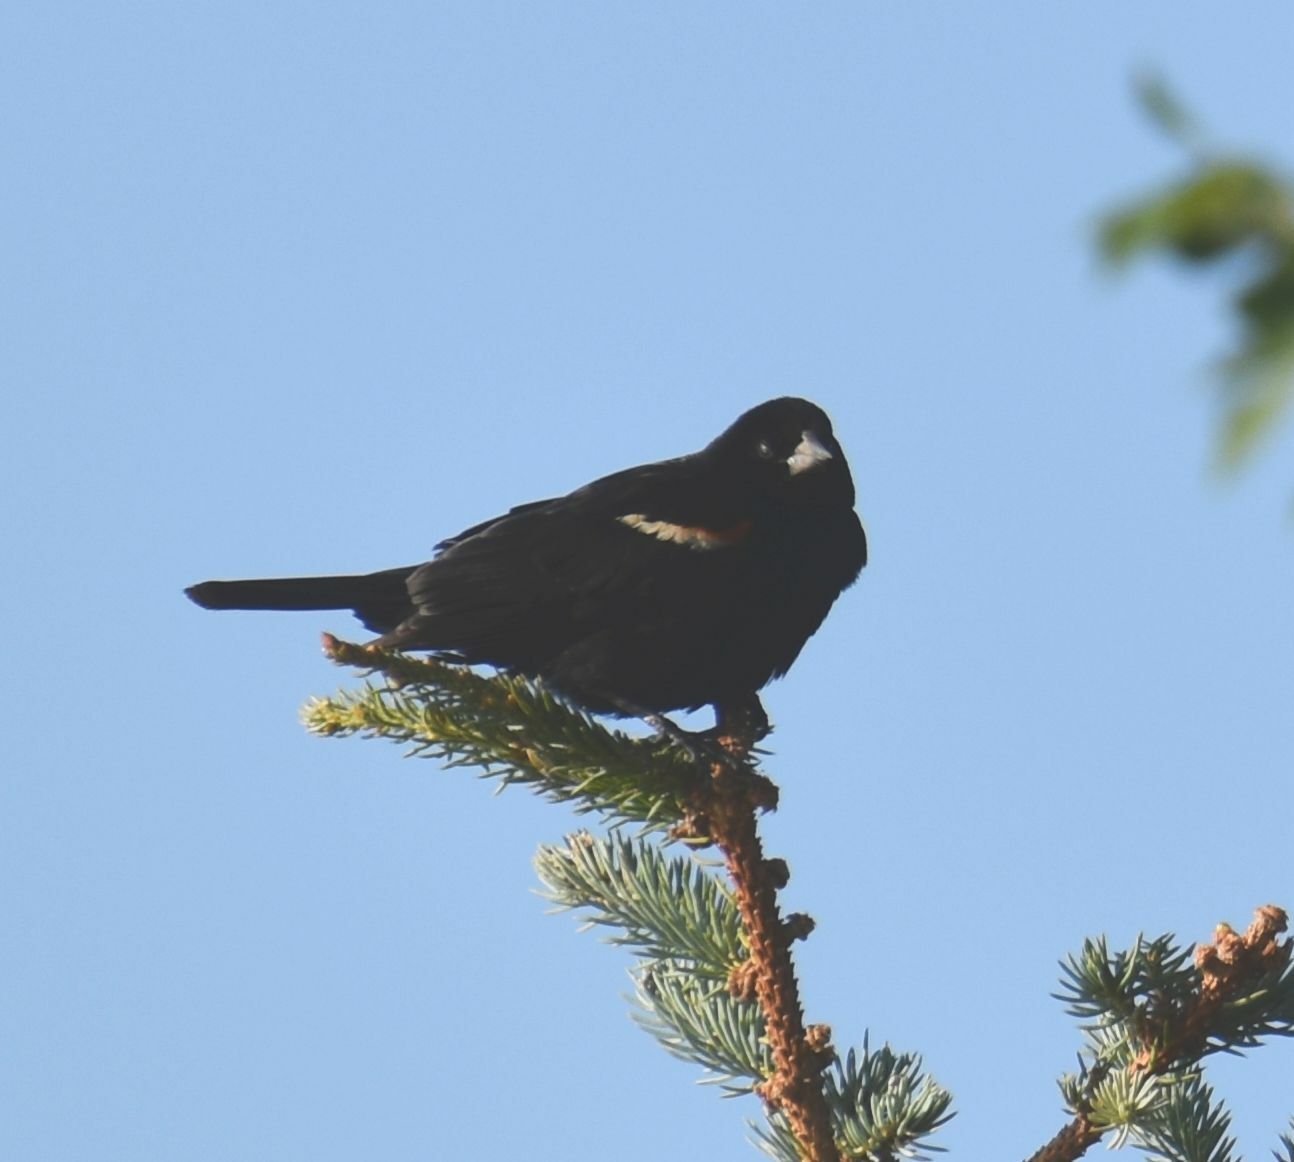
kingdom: Animalia
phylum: Chordata
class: Aves
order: Passeriformes
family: Icteridae
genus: Agelaius
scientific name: Agelaius phoeniceus
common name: Red-winged blackbird
